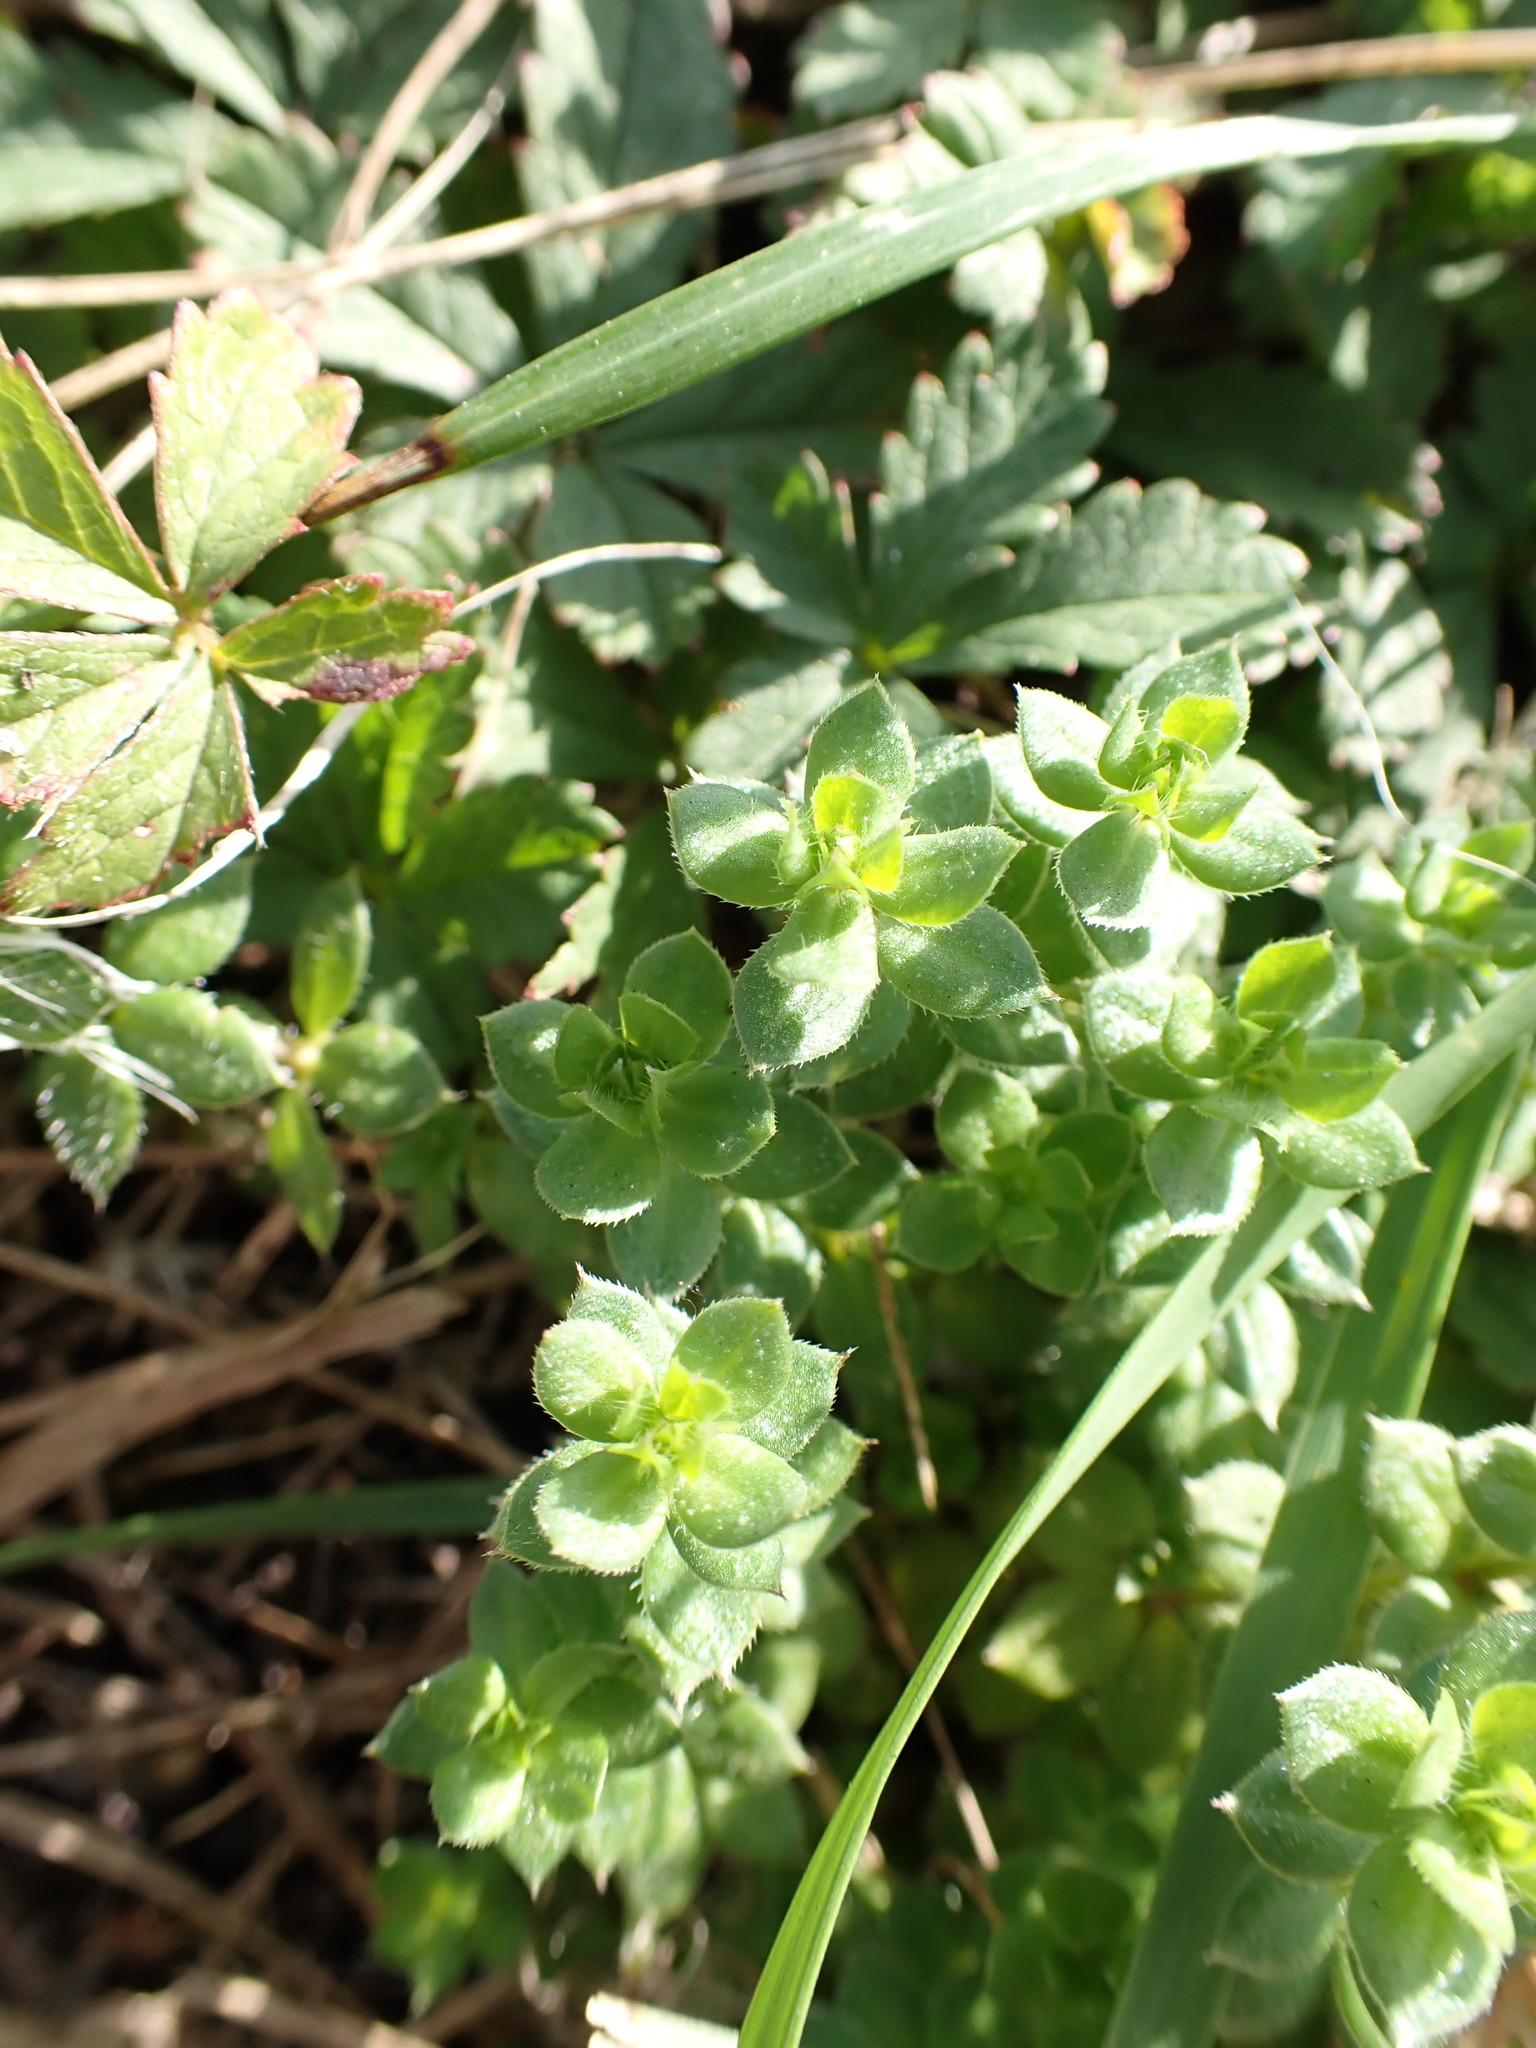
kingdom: Plantae
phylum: Tracheophyta
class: Magnoliopsida
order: Gentianales
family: Rubiaceae
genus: Sherardia
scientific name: Sherardia arvensis
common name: Field madder
